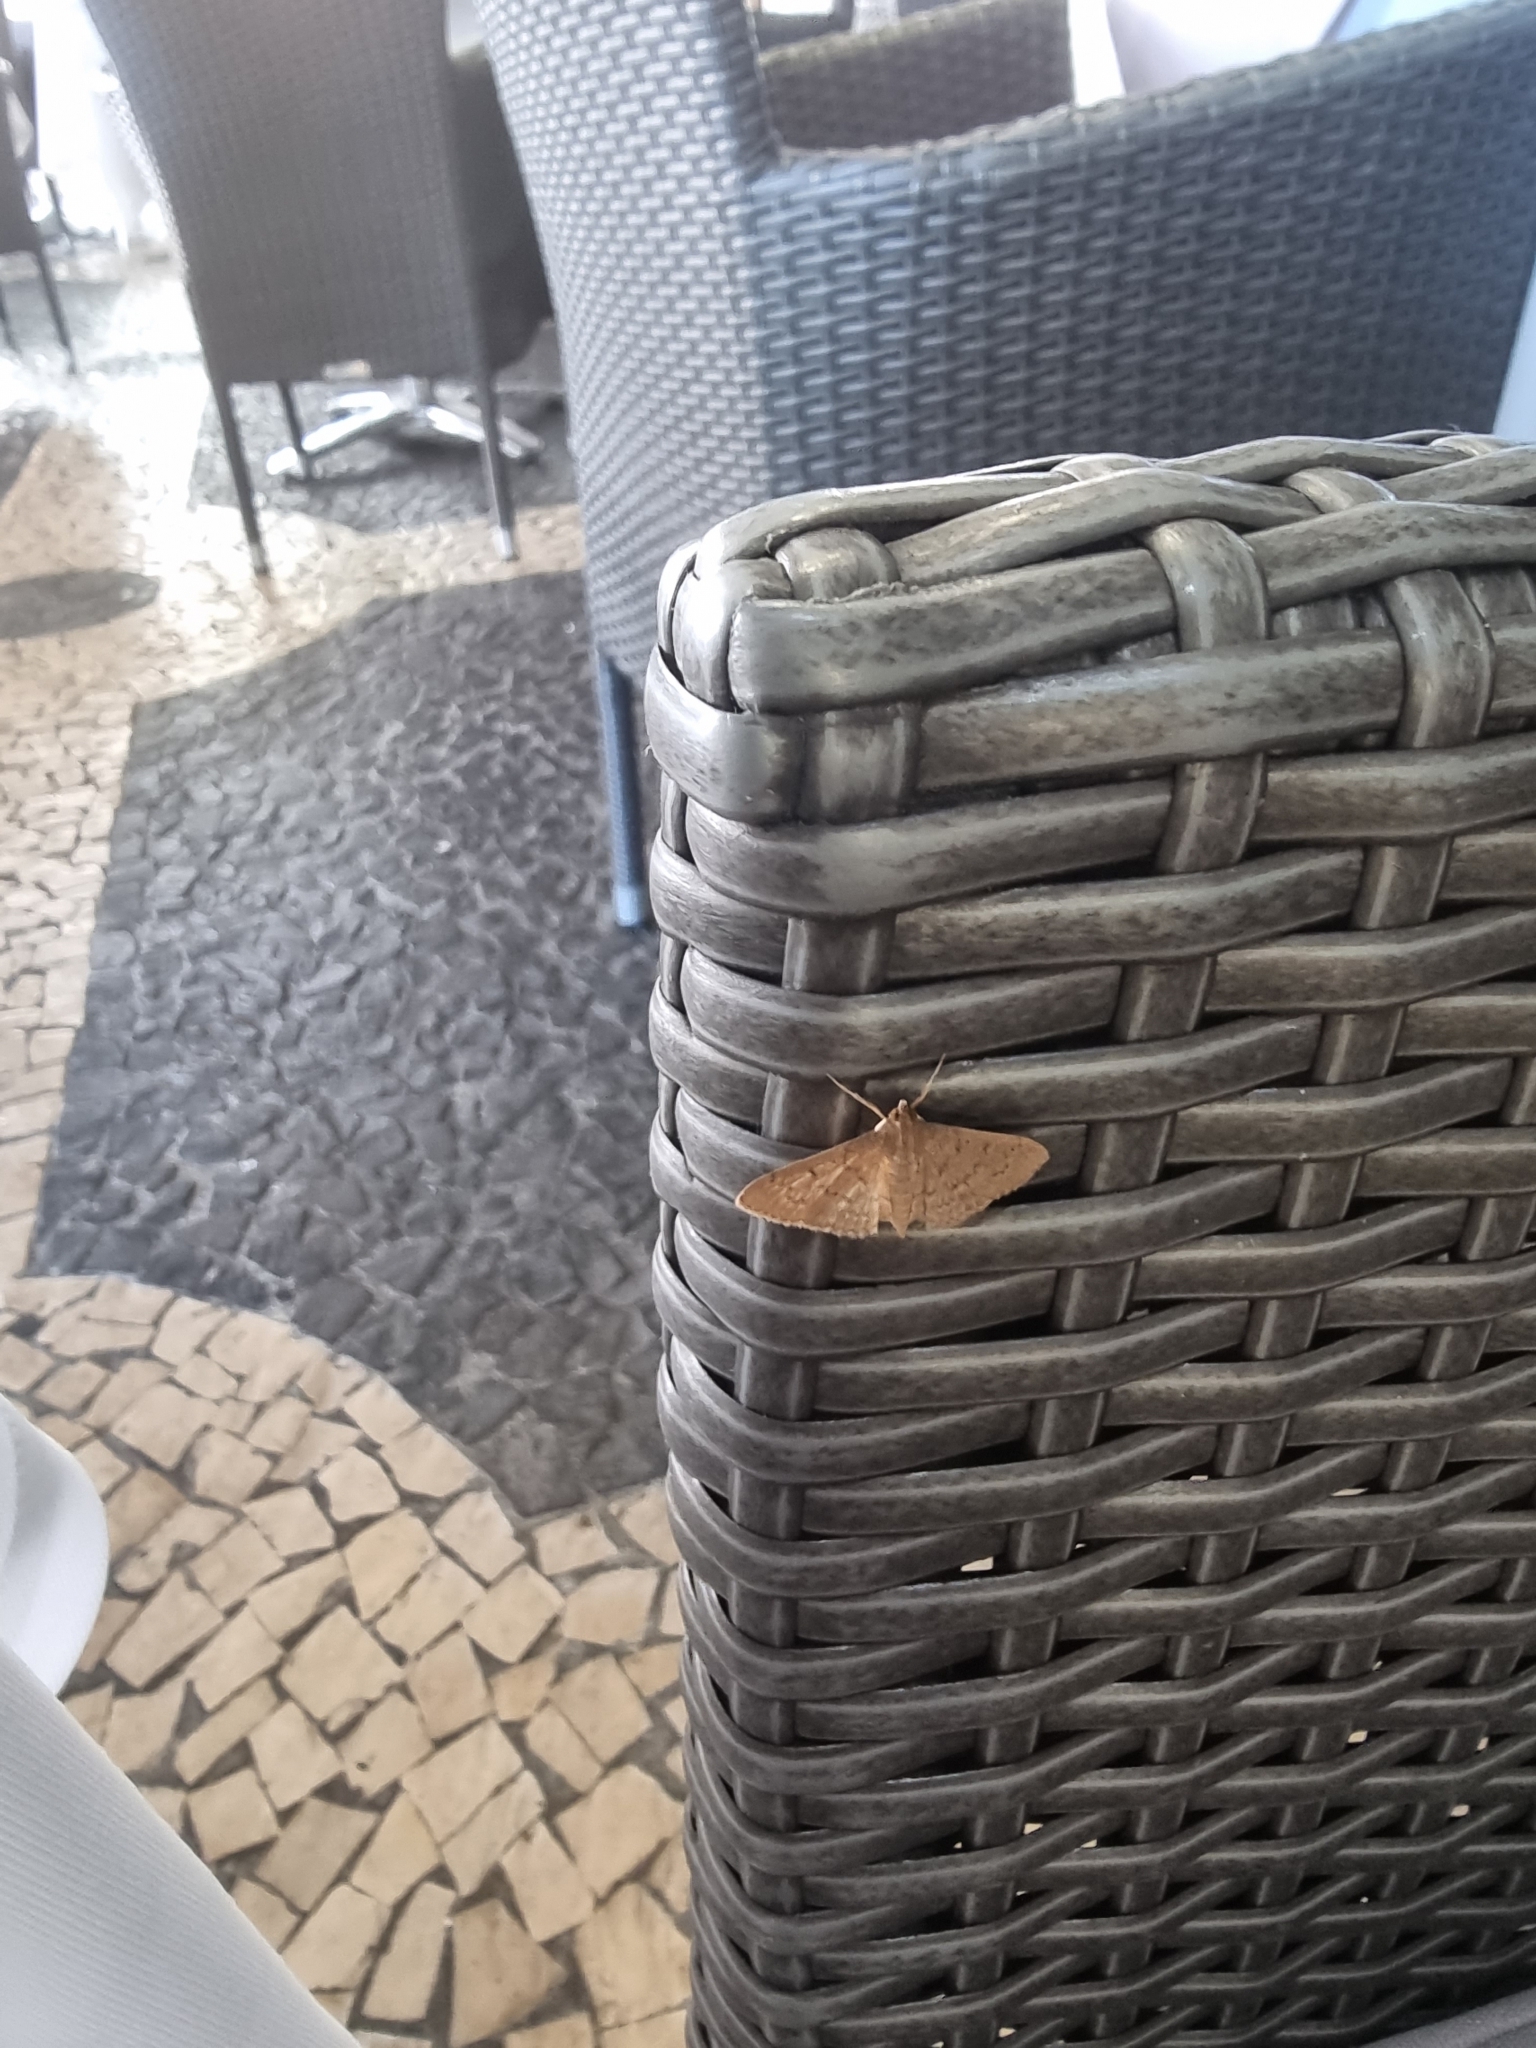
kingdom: Animalia
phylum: Arthropoda
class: Insecta
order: Lepidoptera
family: Crambidae
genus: Herpetogramma
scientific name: Herpetogramma licarsisalis
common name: Grass webworm
